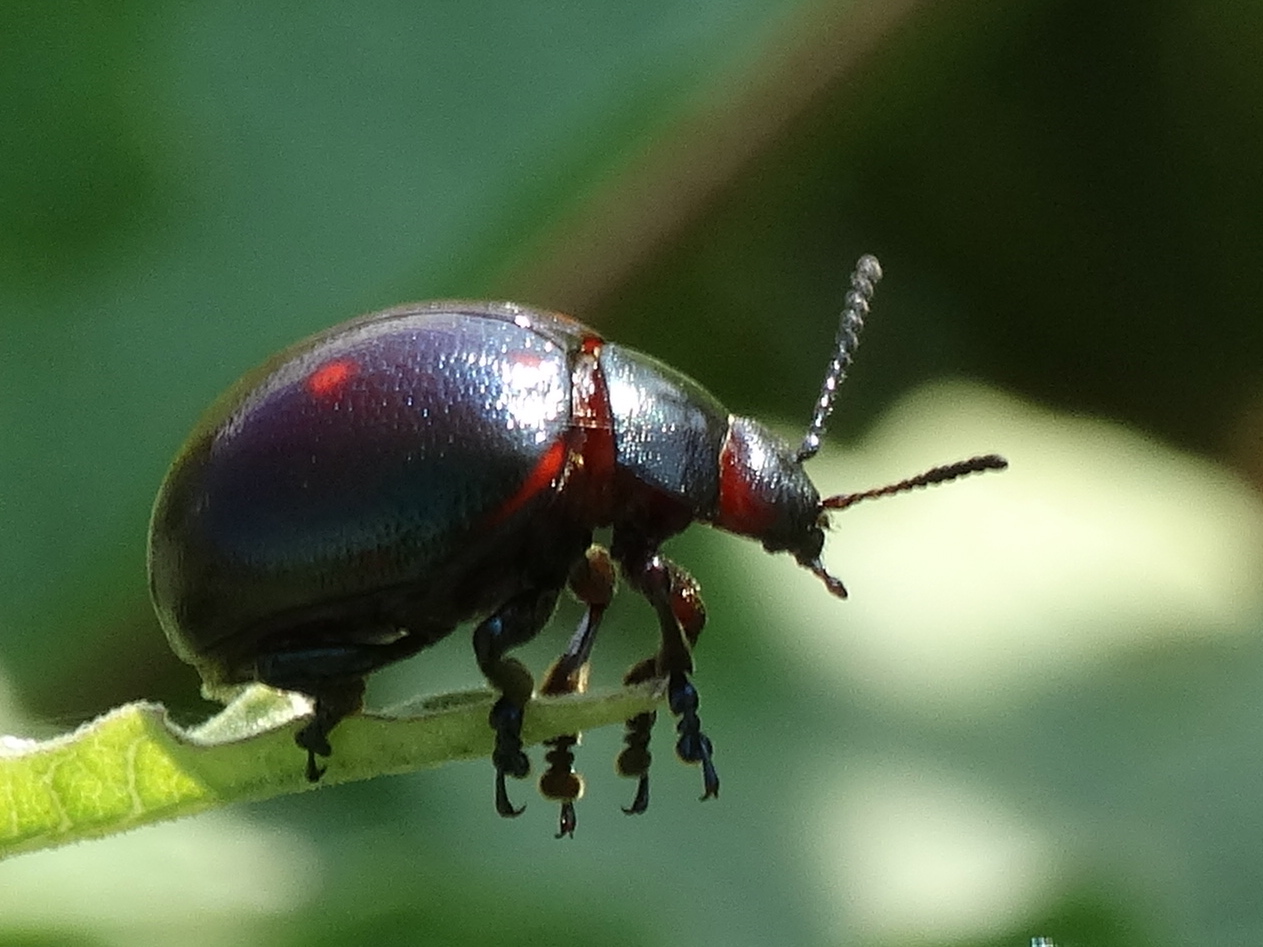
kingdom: Animalia
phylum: Arthropoda
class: Insecta
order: Coleoptera
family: Chrysomelidae
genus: Leptinotarsa
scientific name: Leptinotarsa behrensi
